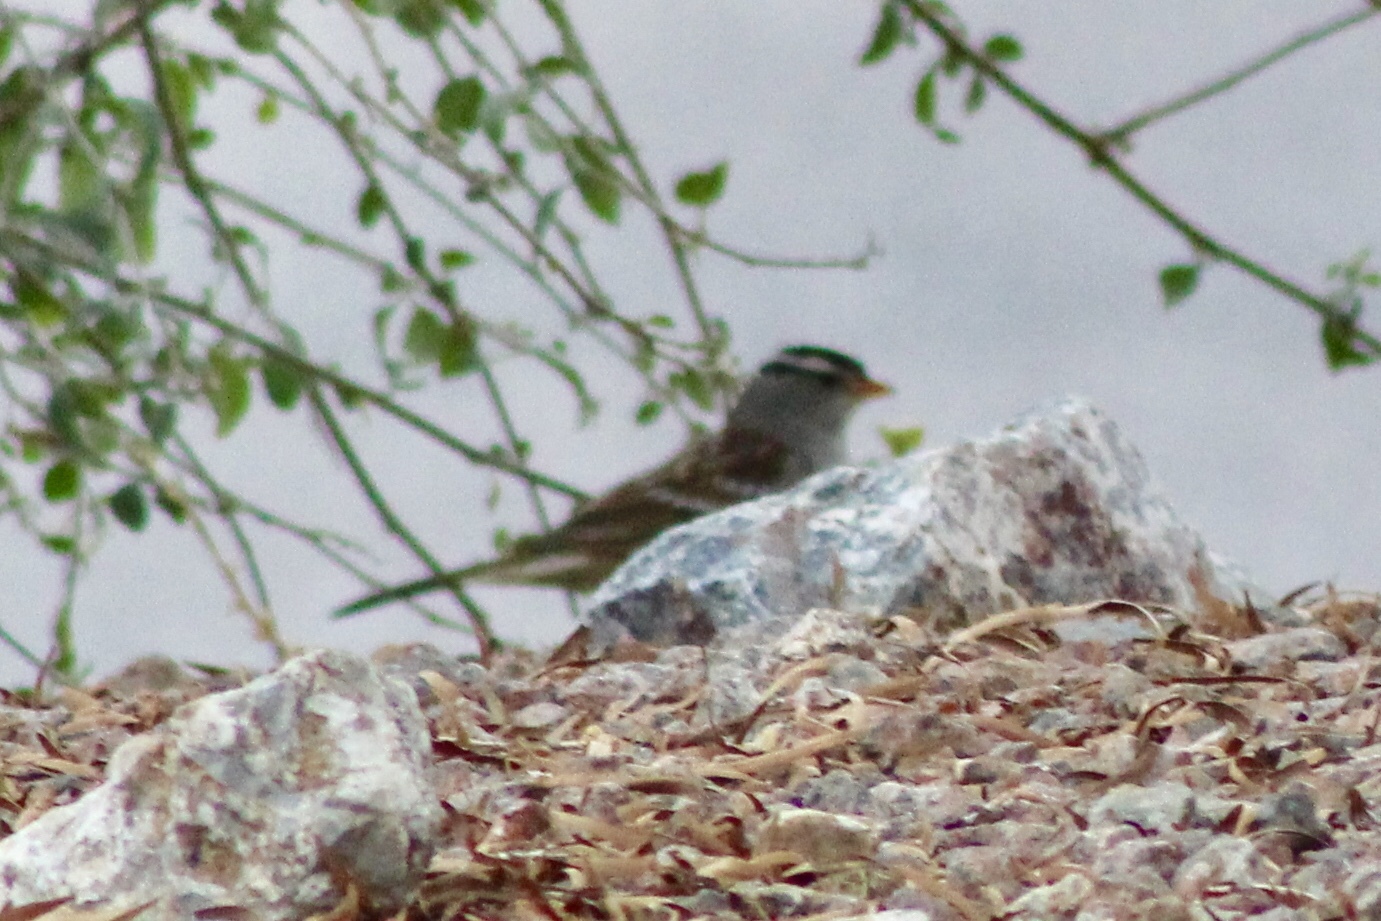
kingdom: Animalia
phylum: Chordata
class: Aves
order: Passeriformes
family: Passerellidae
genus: Zonotrichia
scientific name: Zonotrichia leucophrys
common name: White-crowned sparrow
